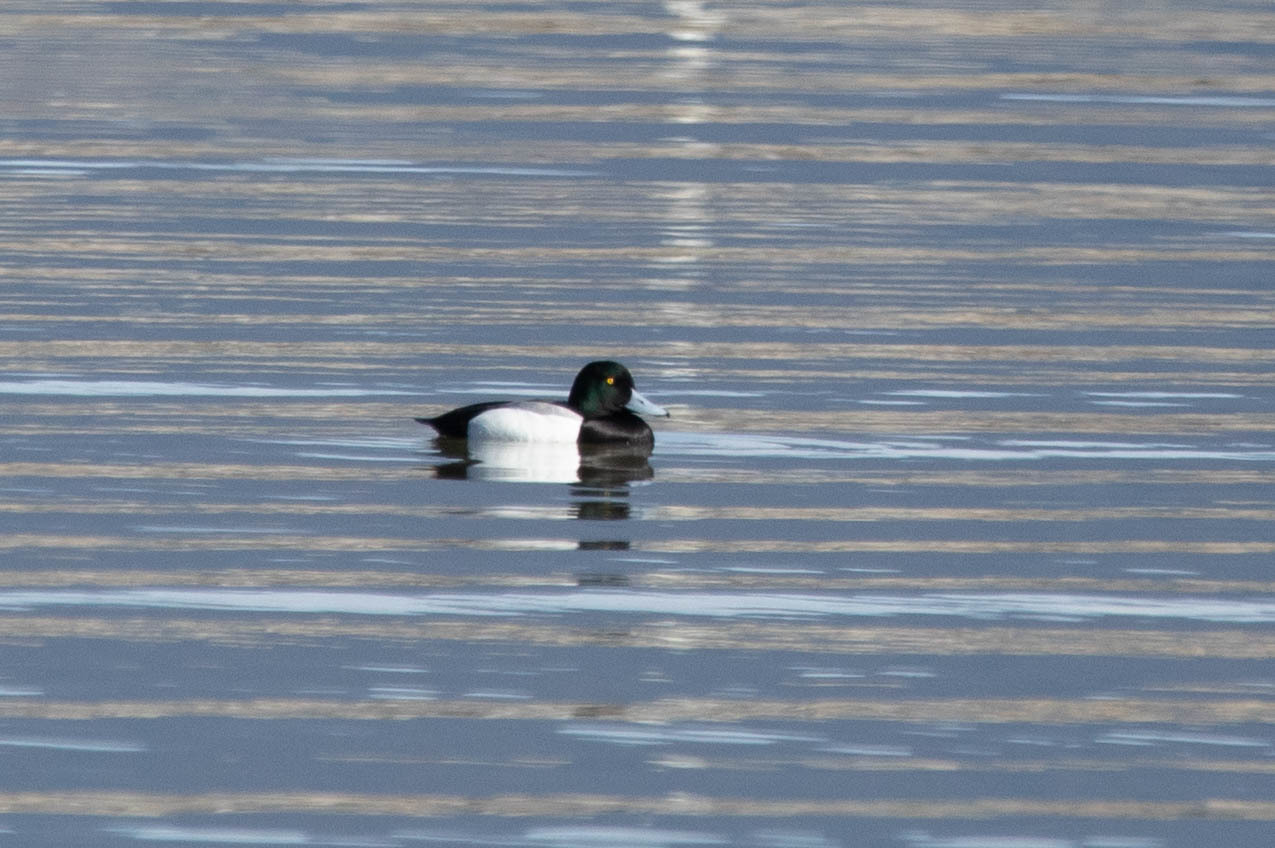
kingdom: Animalia
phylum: Chordata
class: Aves
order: Anseriformes
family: Anatidae
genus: Aythya
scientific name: Aythya marila
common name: Greater scaup
